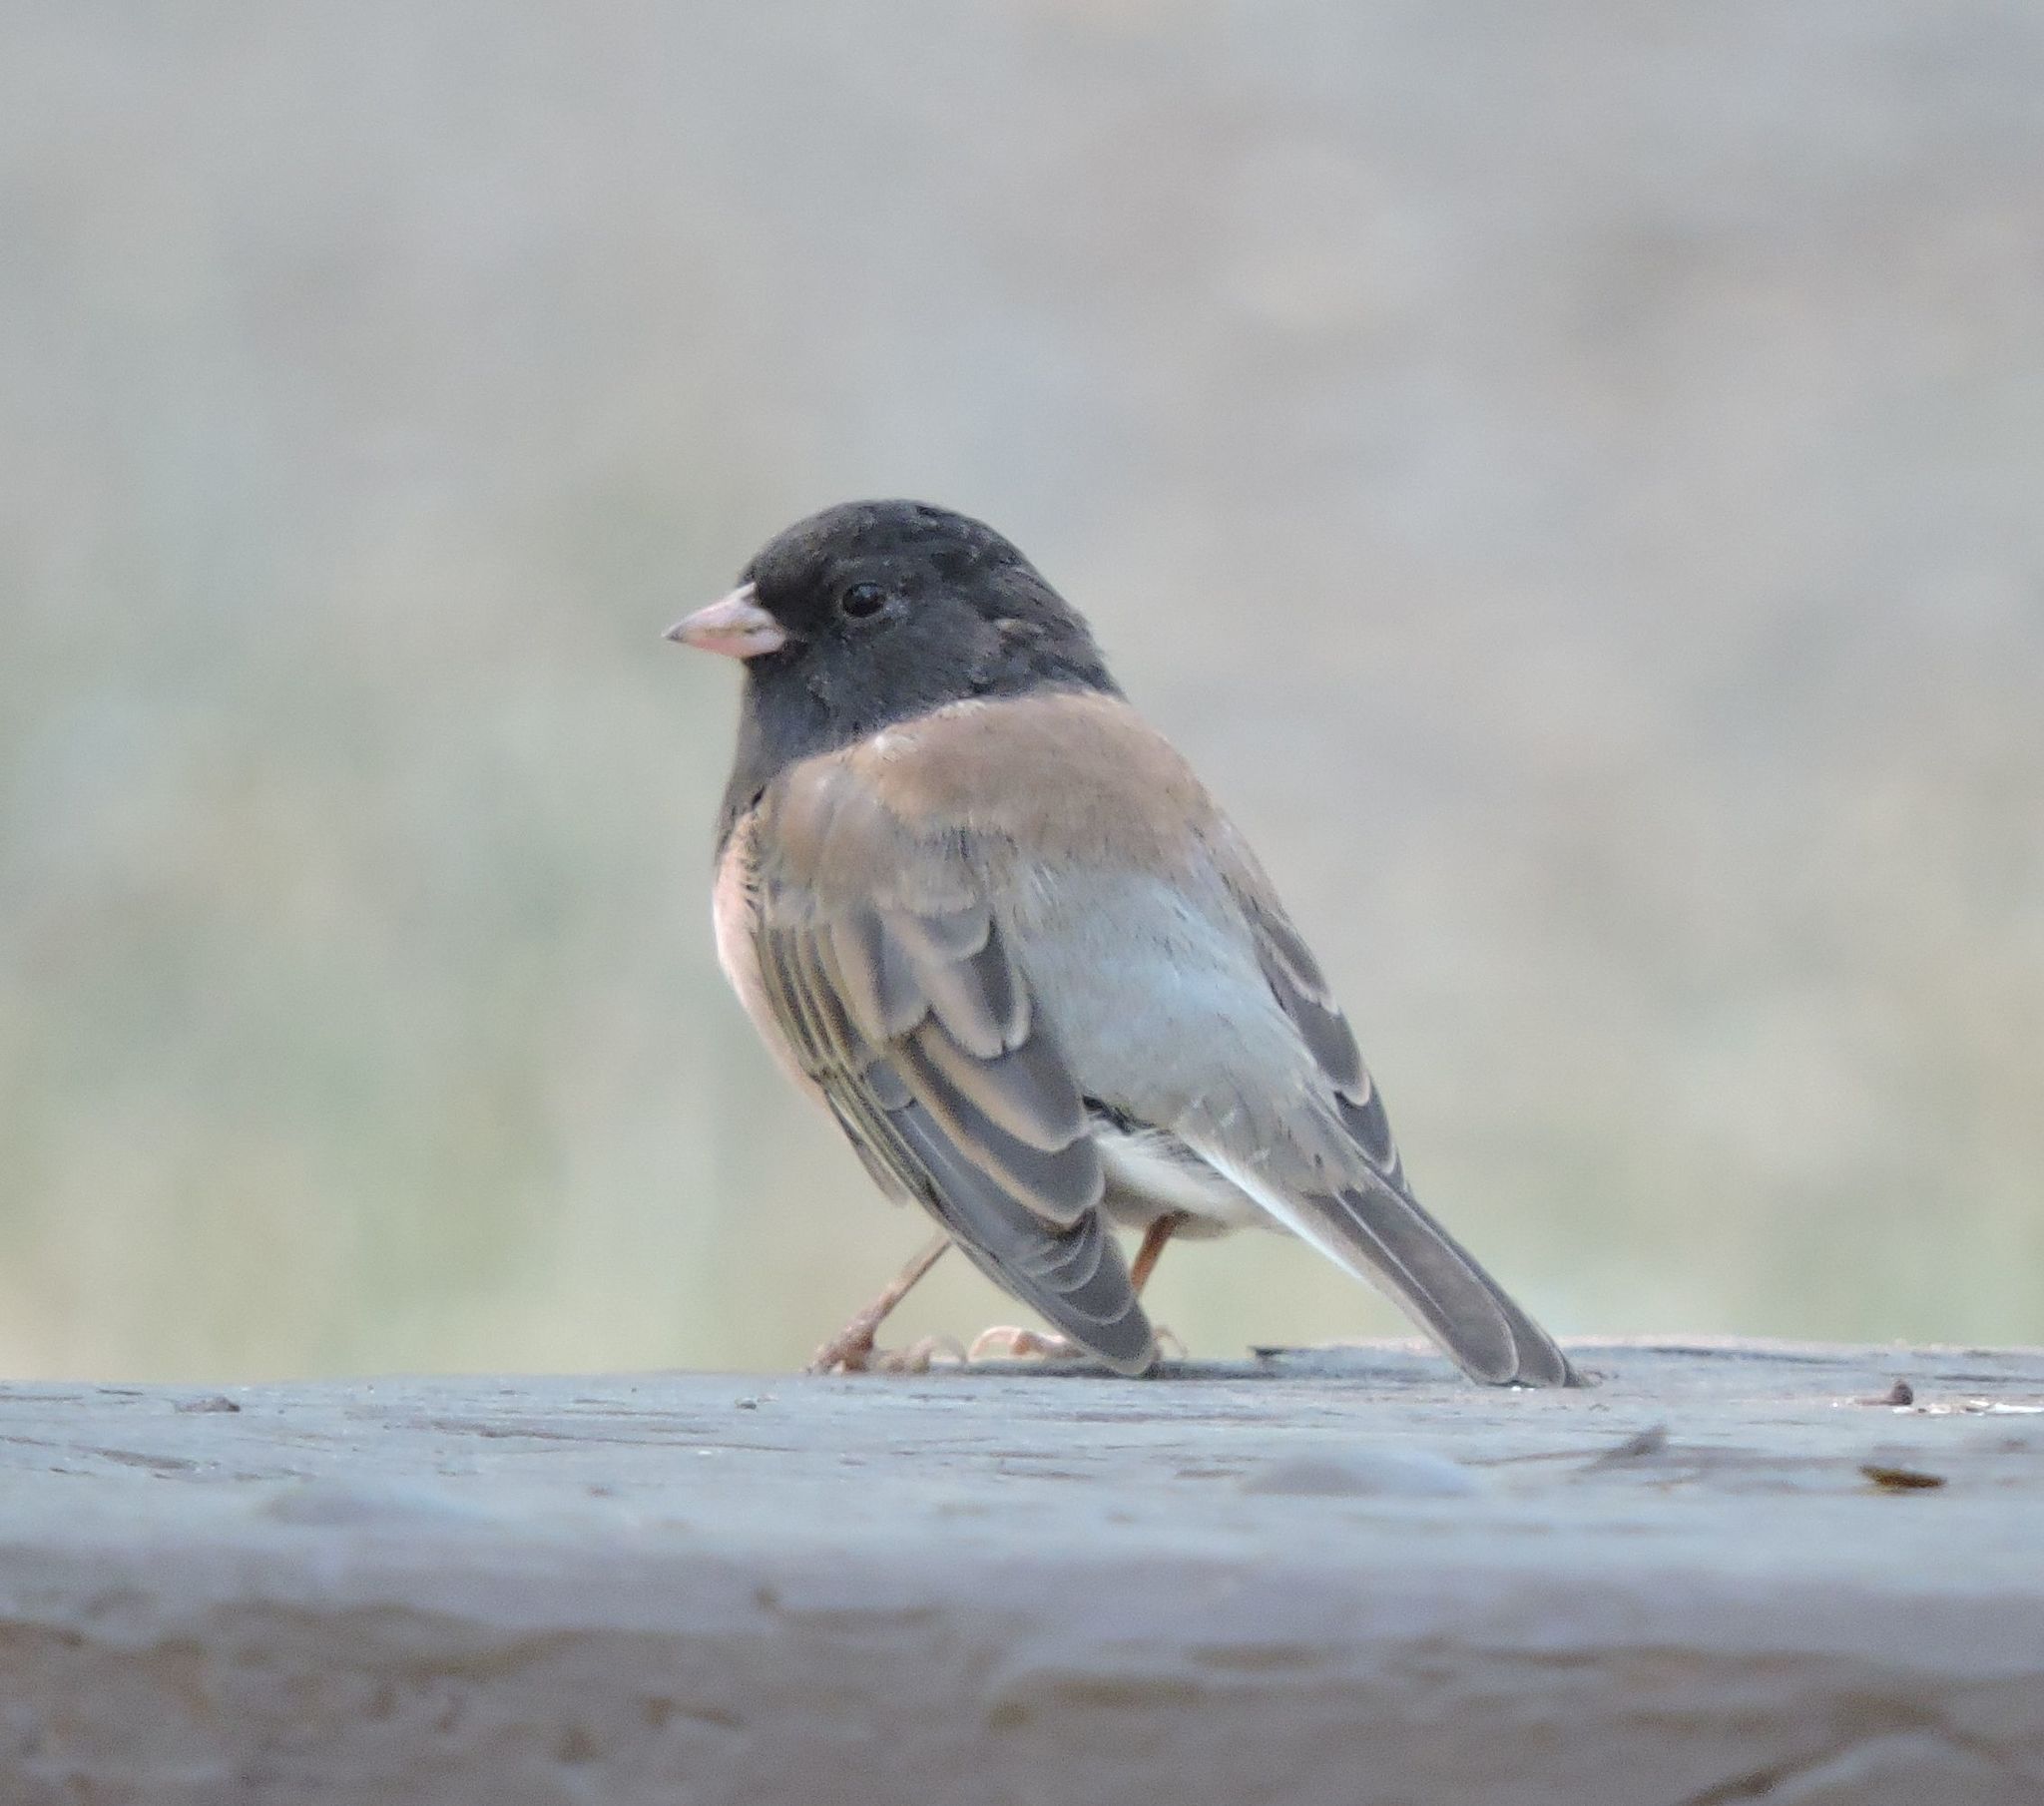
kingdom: Animalia
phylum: Chordata
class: Aves
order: Passeriformes
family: Passerellidae
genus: Junco
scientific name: Junco hyemalis
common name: Dark-eyed junco
